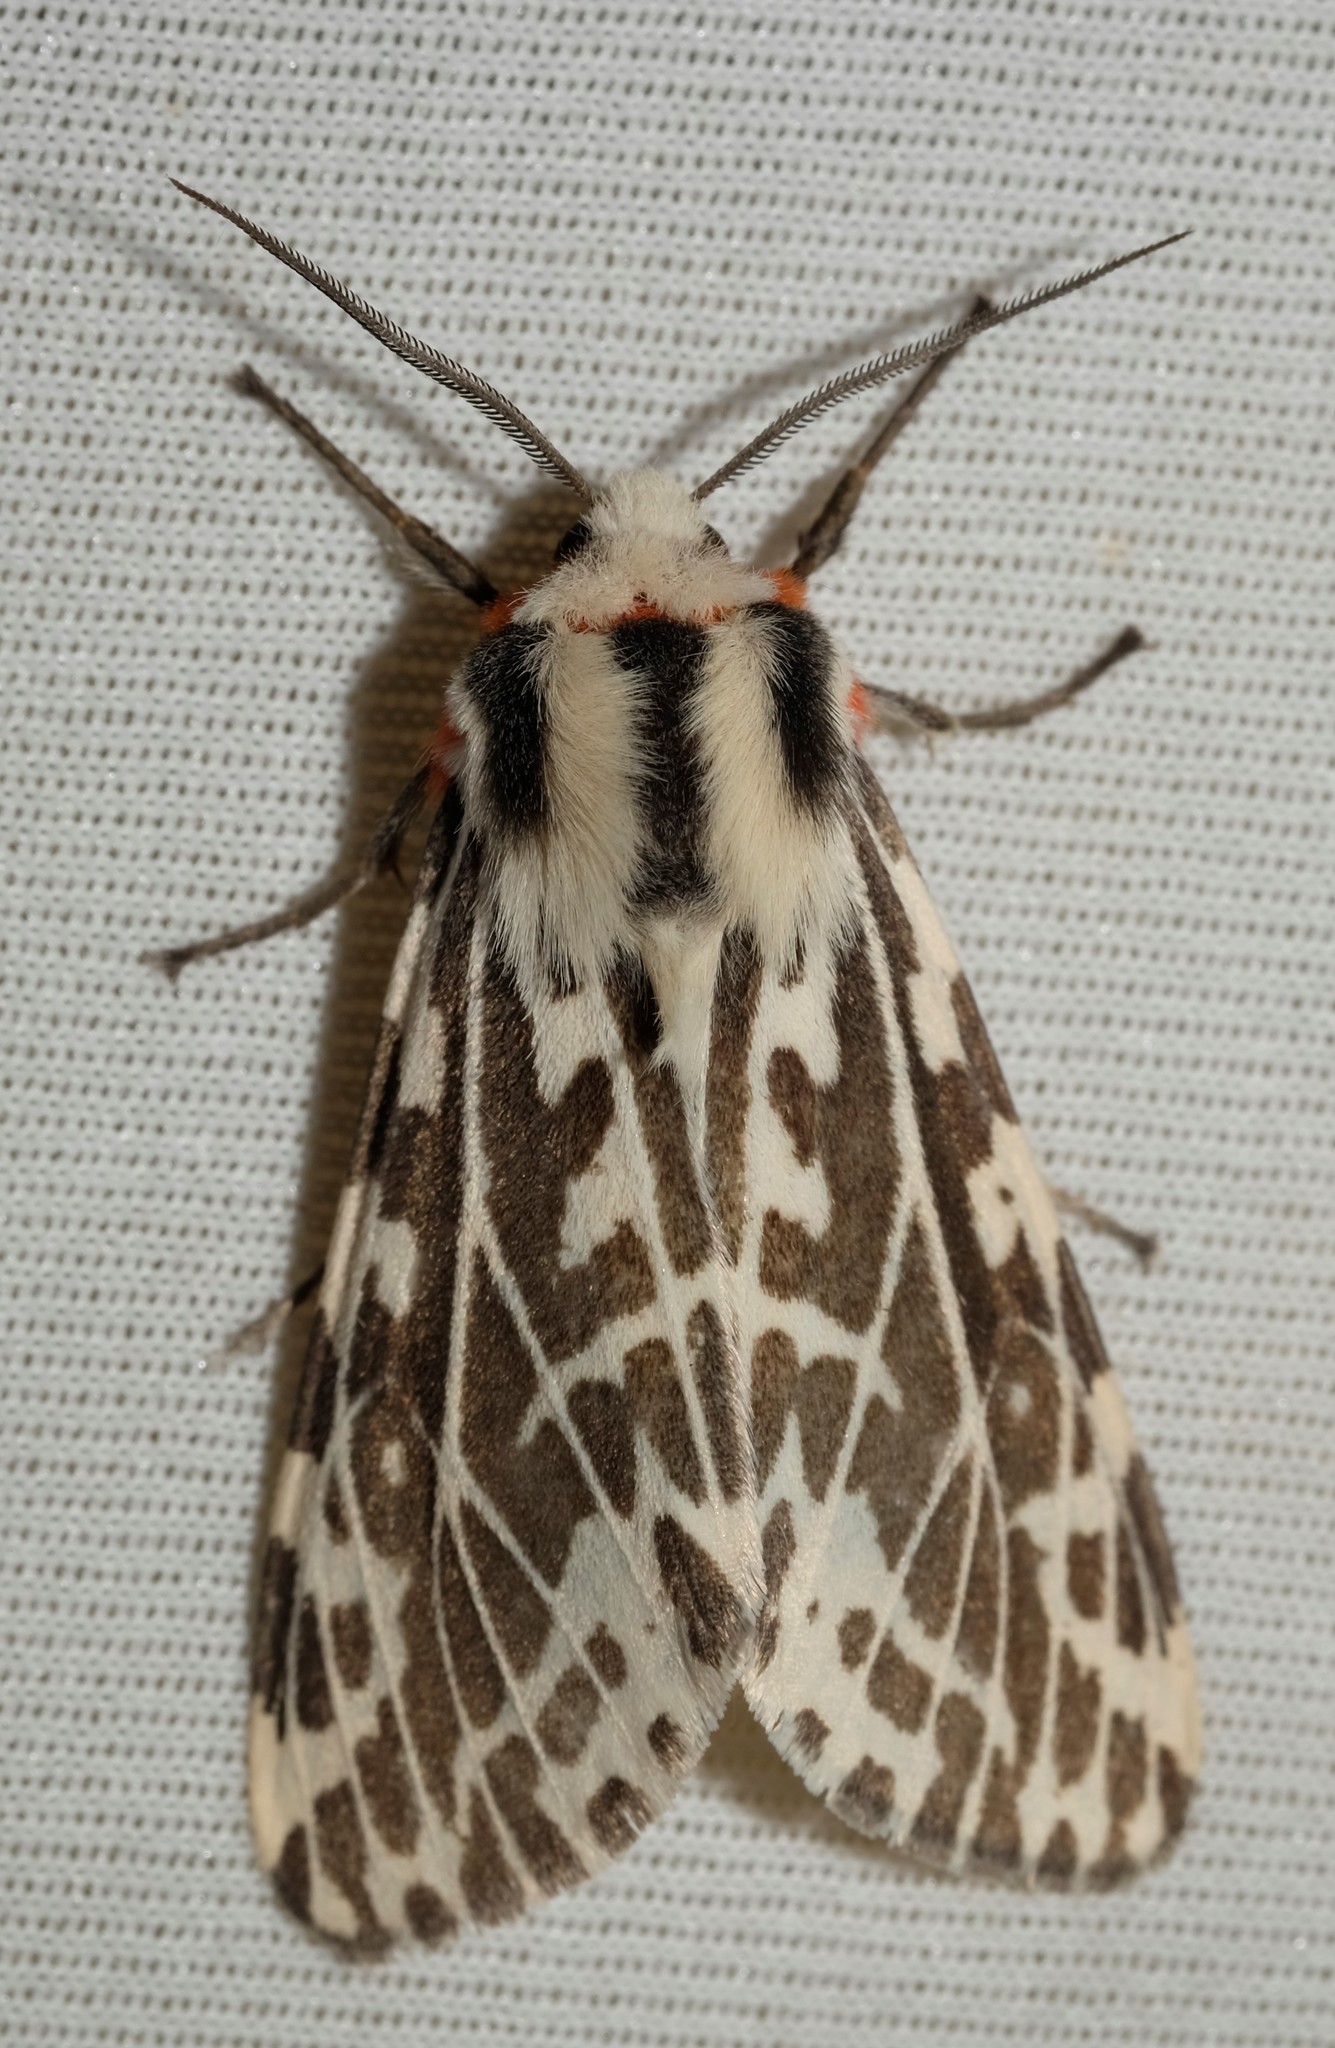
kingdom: Animalia
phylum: Arthropoda
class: Insecta
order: Lepidoptera
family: Erebidae
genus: Ardices
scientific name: Ardices glatignyi
